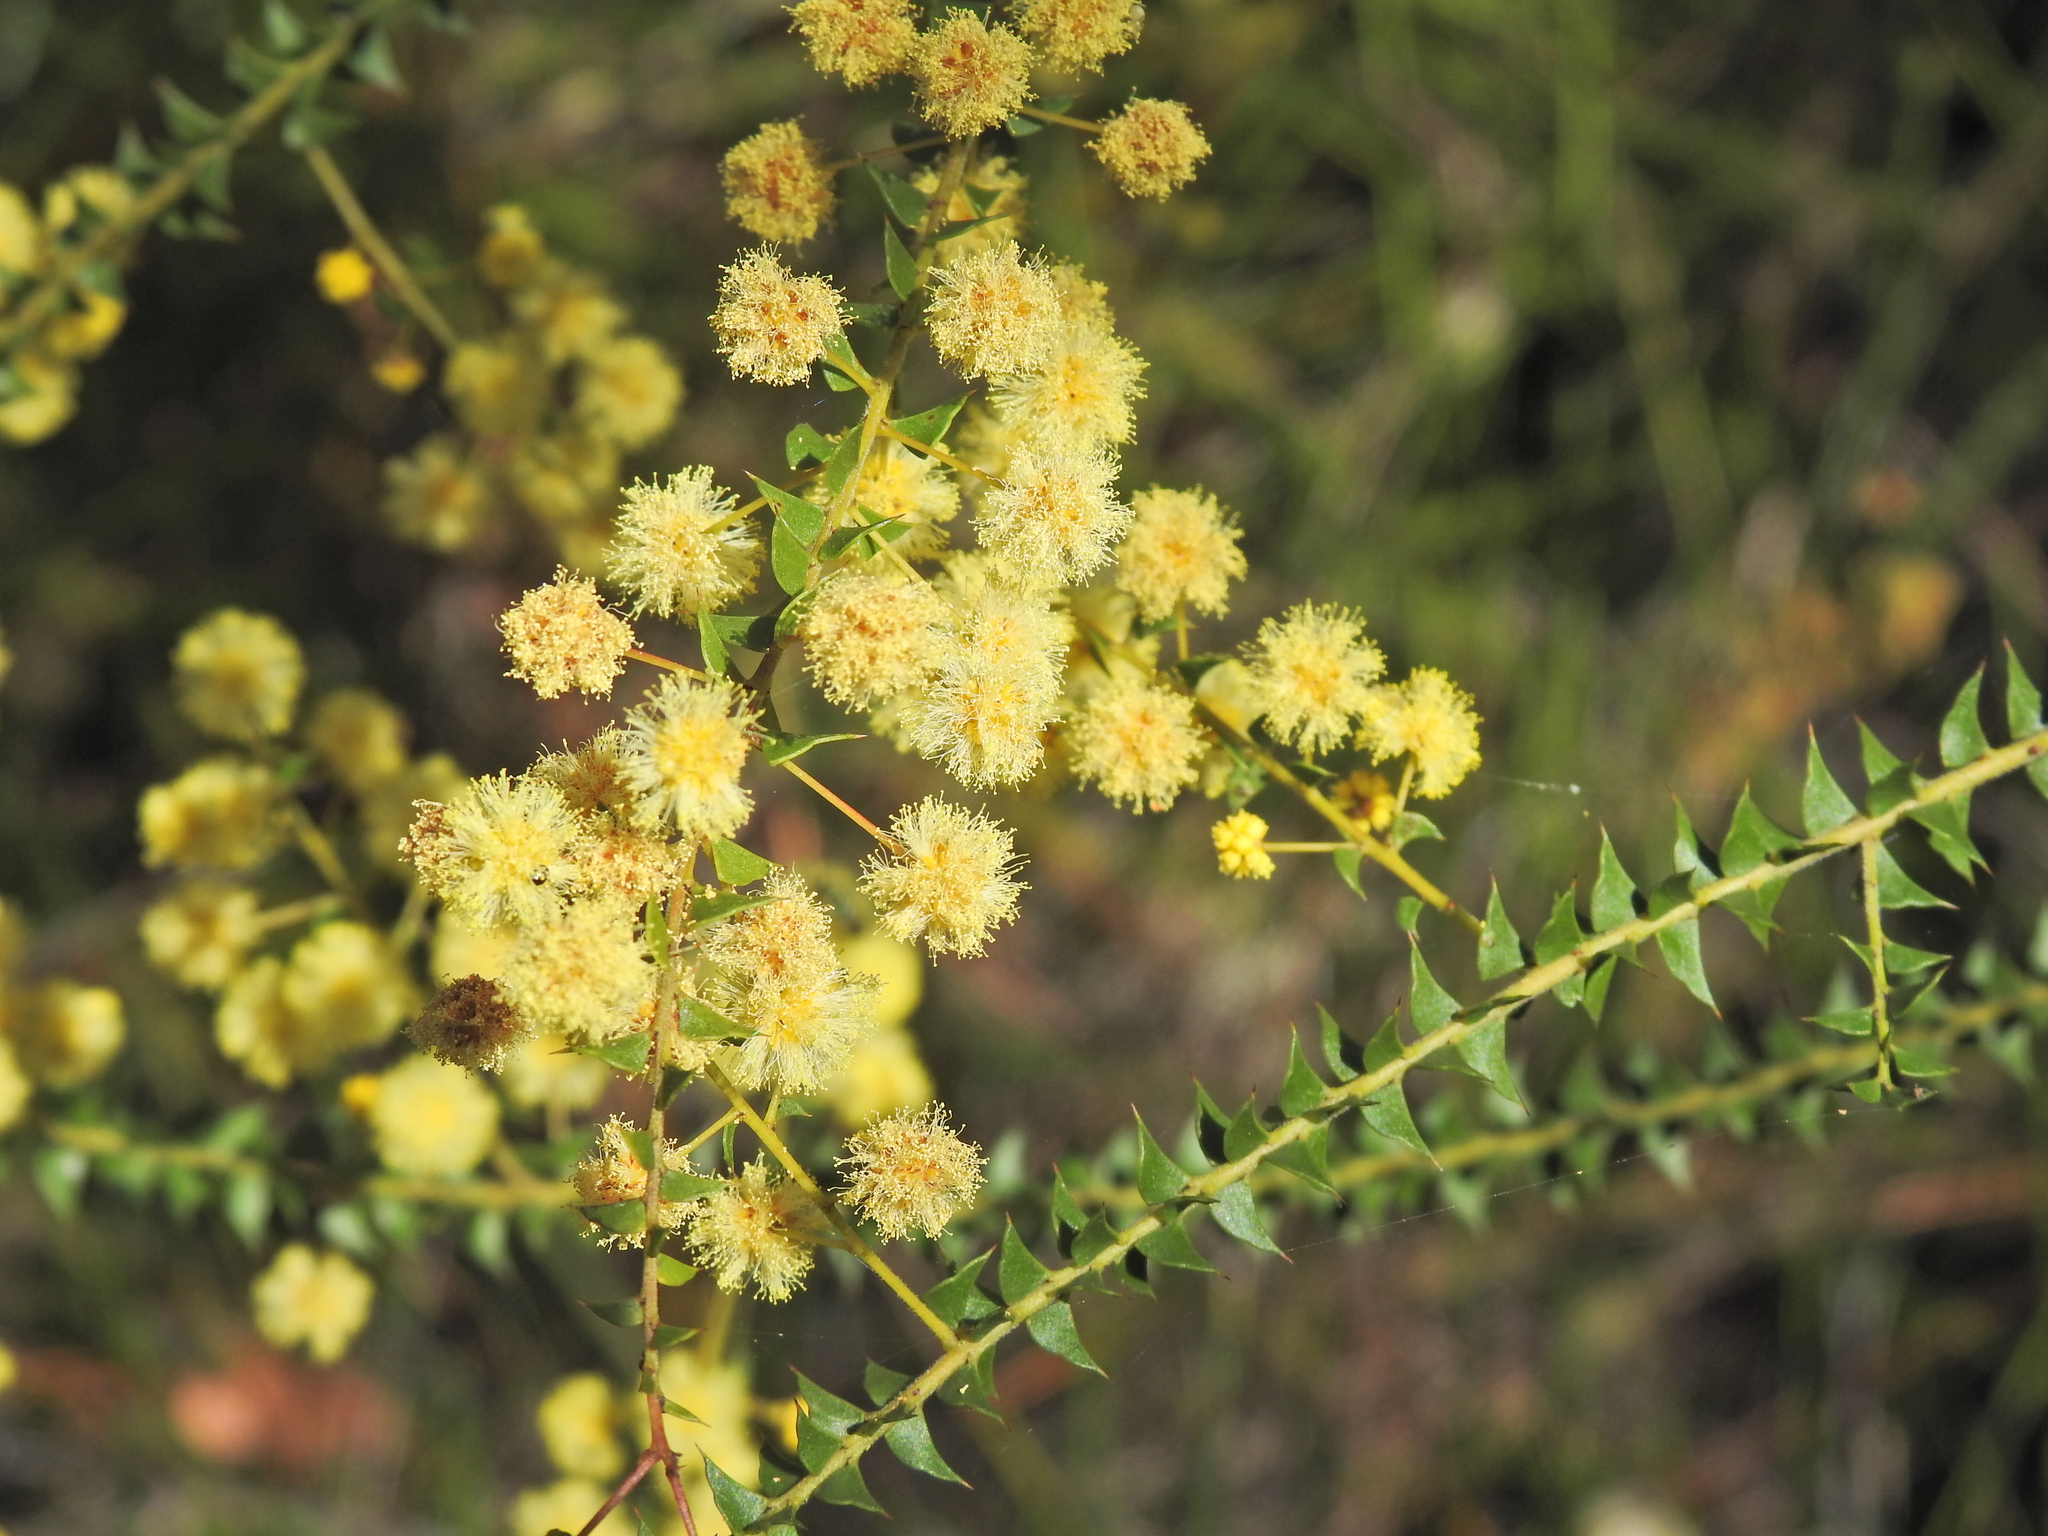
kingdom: Plantae
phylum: Tracheophyta
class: Magnoliopsida
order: Fabales
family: Fabaceae
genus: Acacia
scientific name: Acacia hubbardiana
